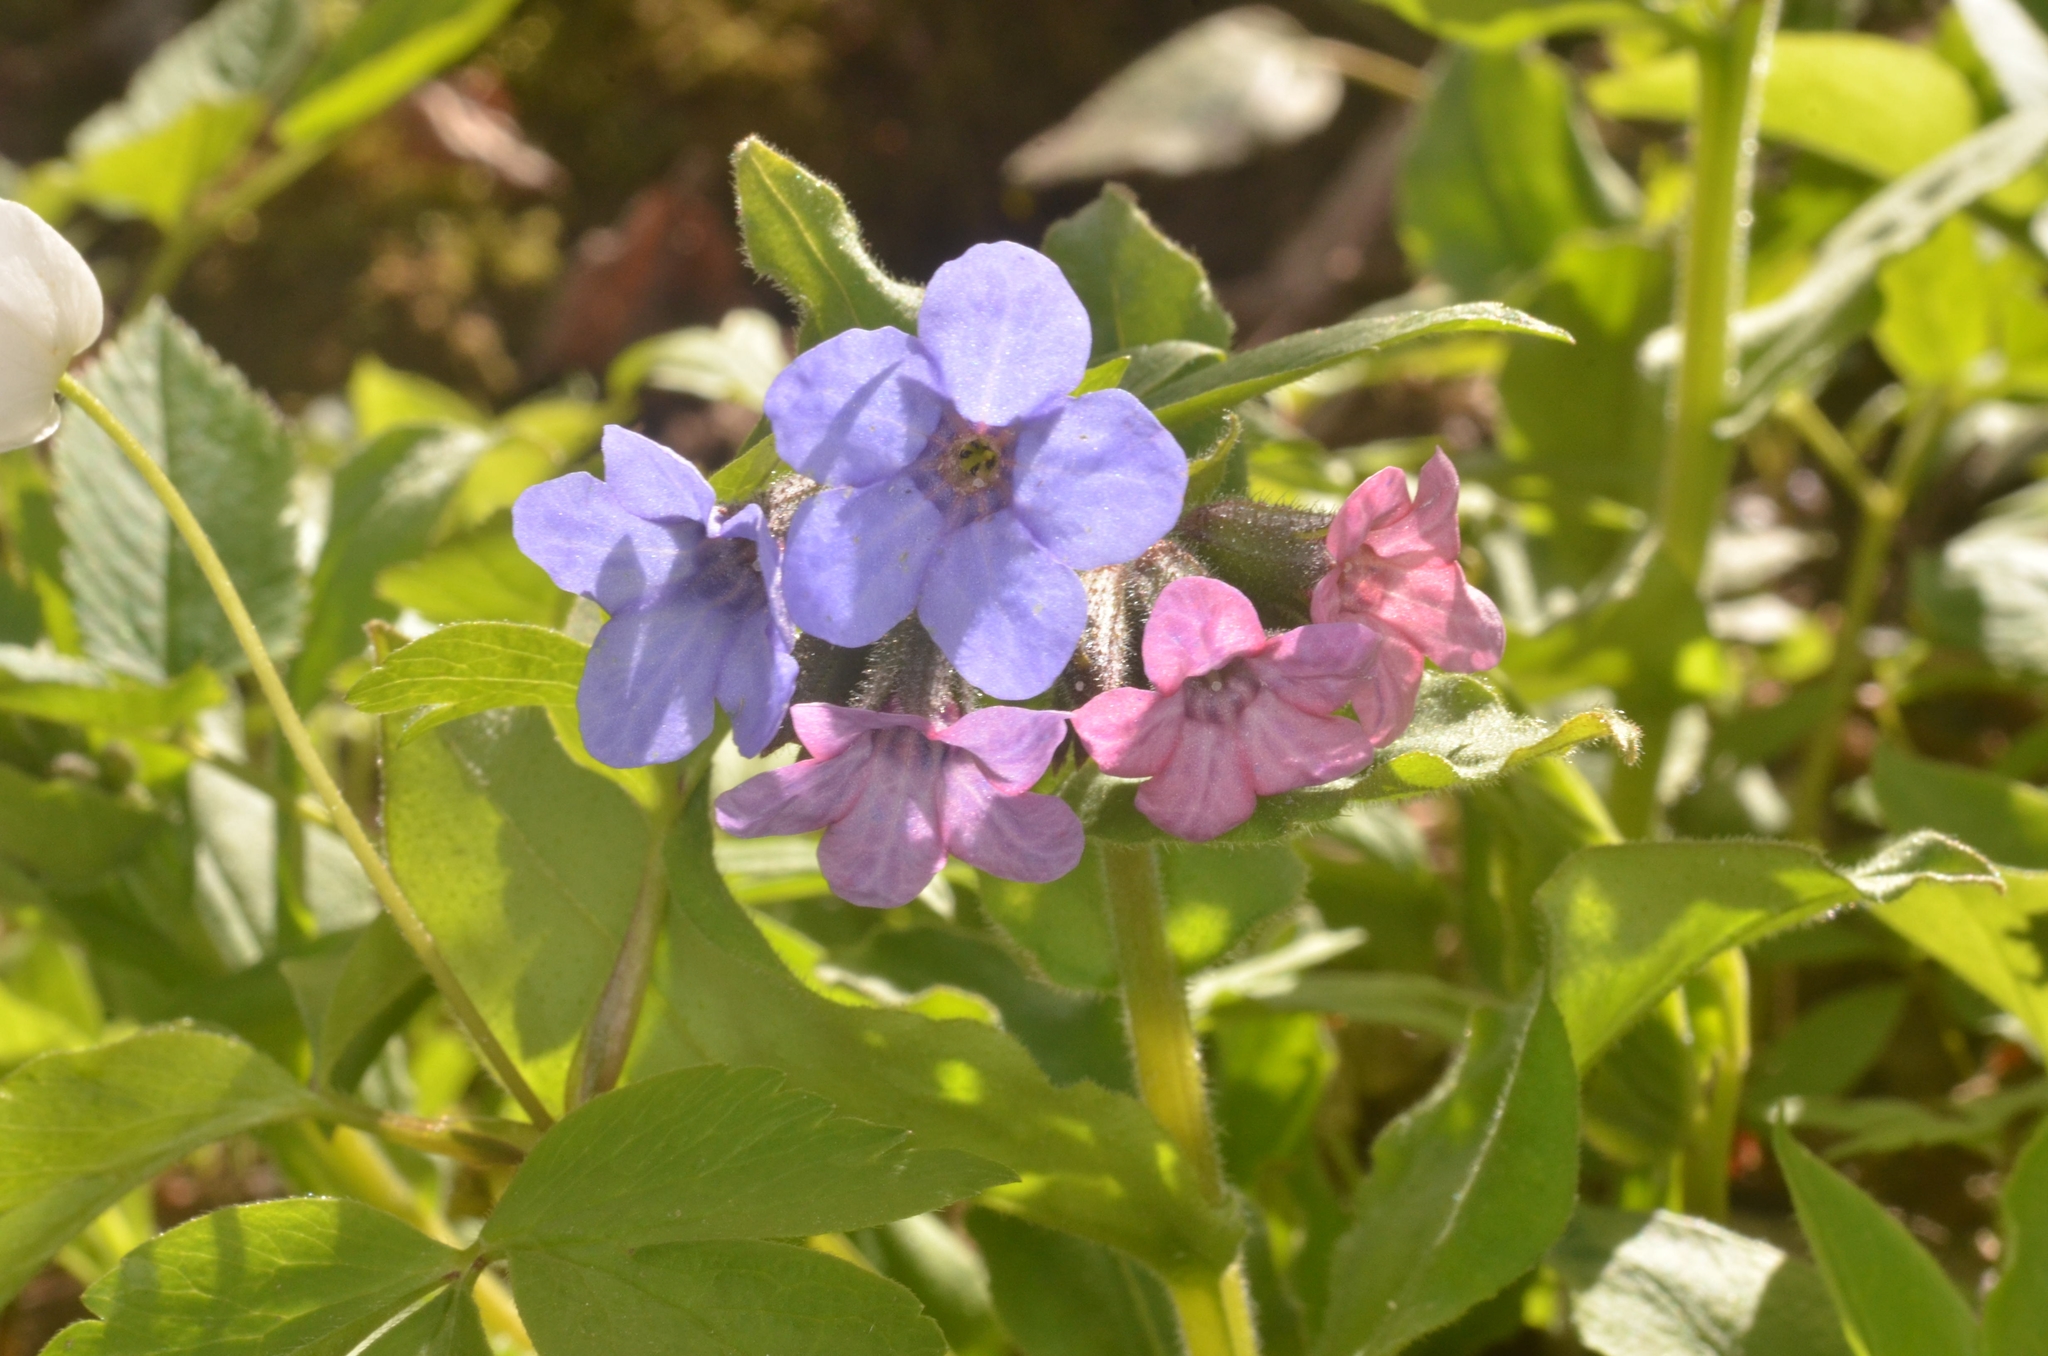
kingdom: Plantae
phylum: Tracheophyta
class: Magnoliopsida
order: Boraginales
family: Boraginaceae
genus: Pulmonaria
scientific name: Pulmonaria obscura
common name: Suffolk lungwort
